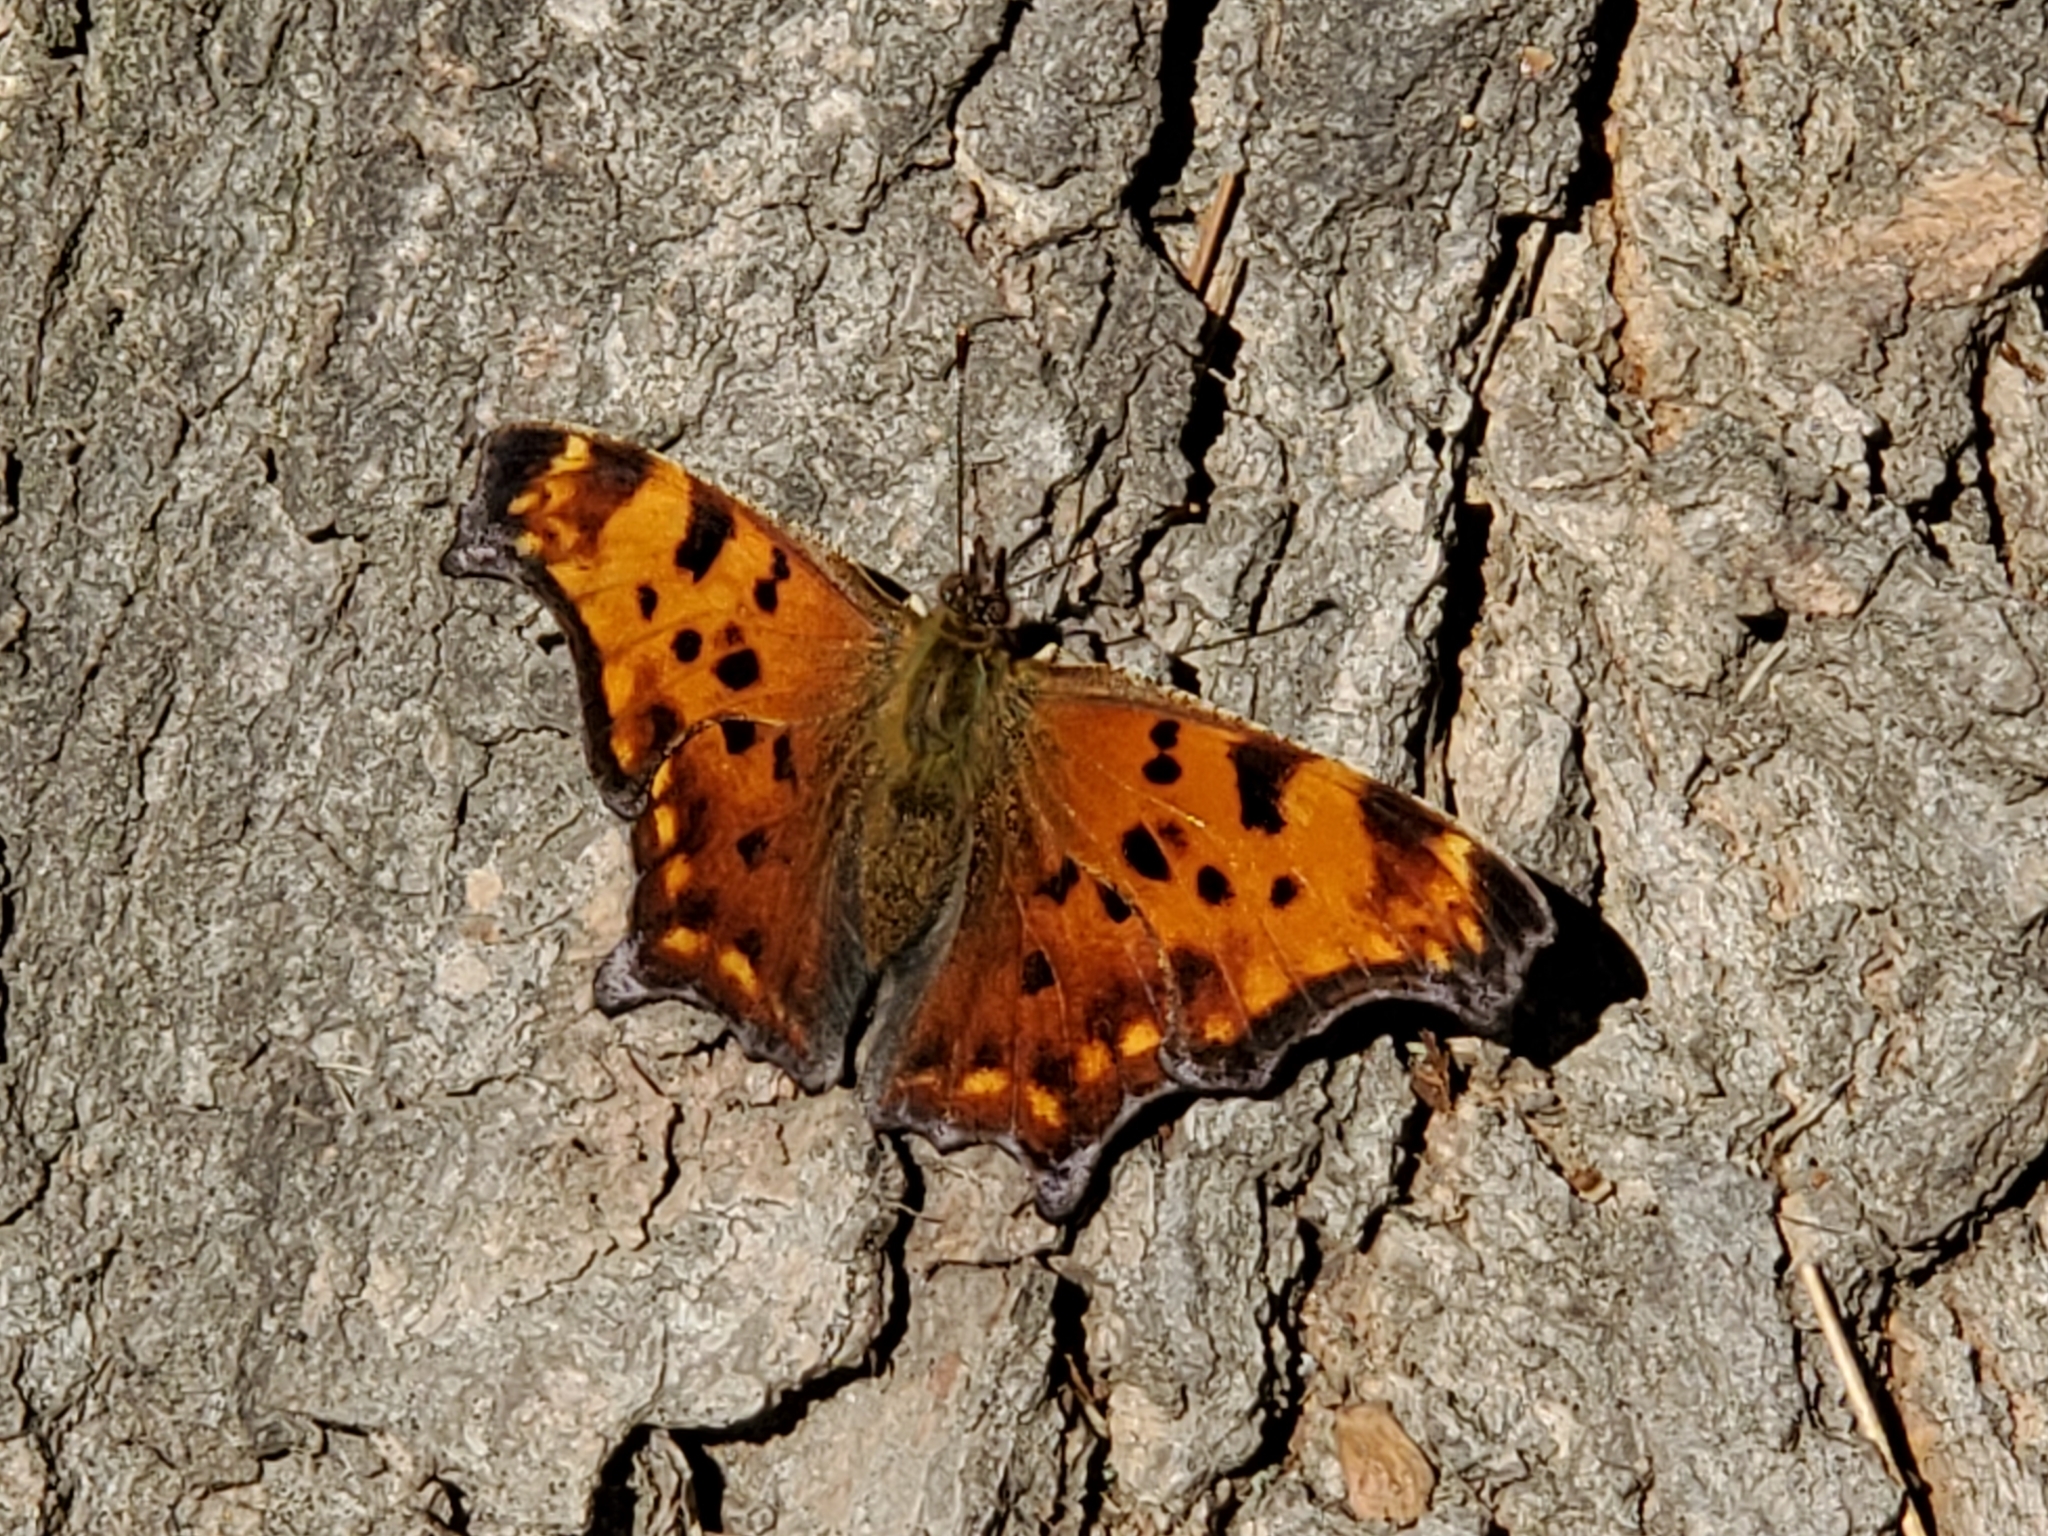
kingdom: Animalia
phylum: Arthropoda
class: Insecta
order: Lepidoptera
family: Nymphalidae
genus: Polygonia
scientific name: Polygonia comma
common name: Eastern comma
